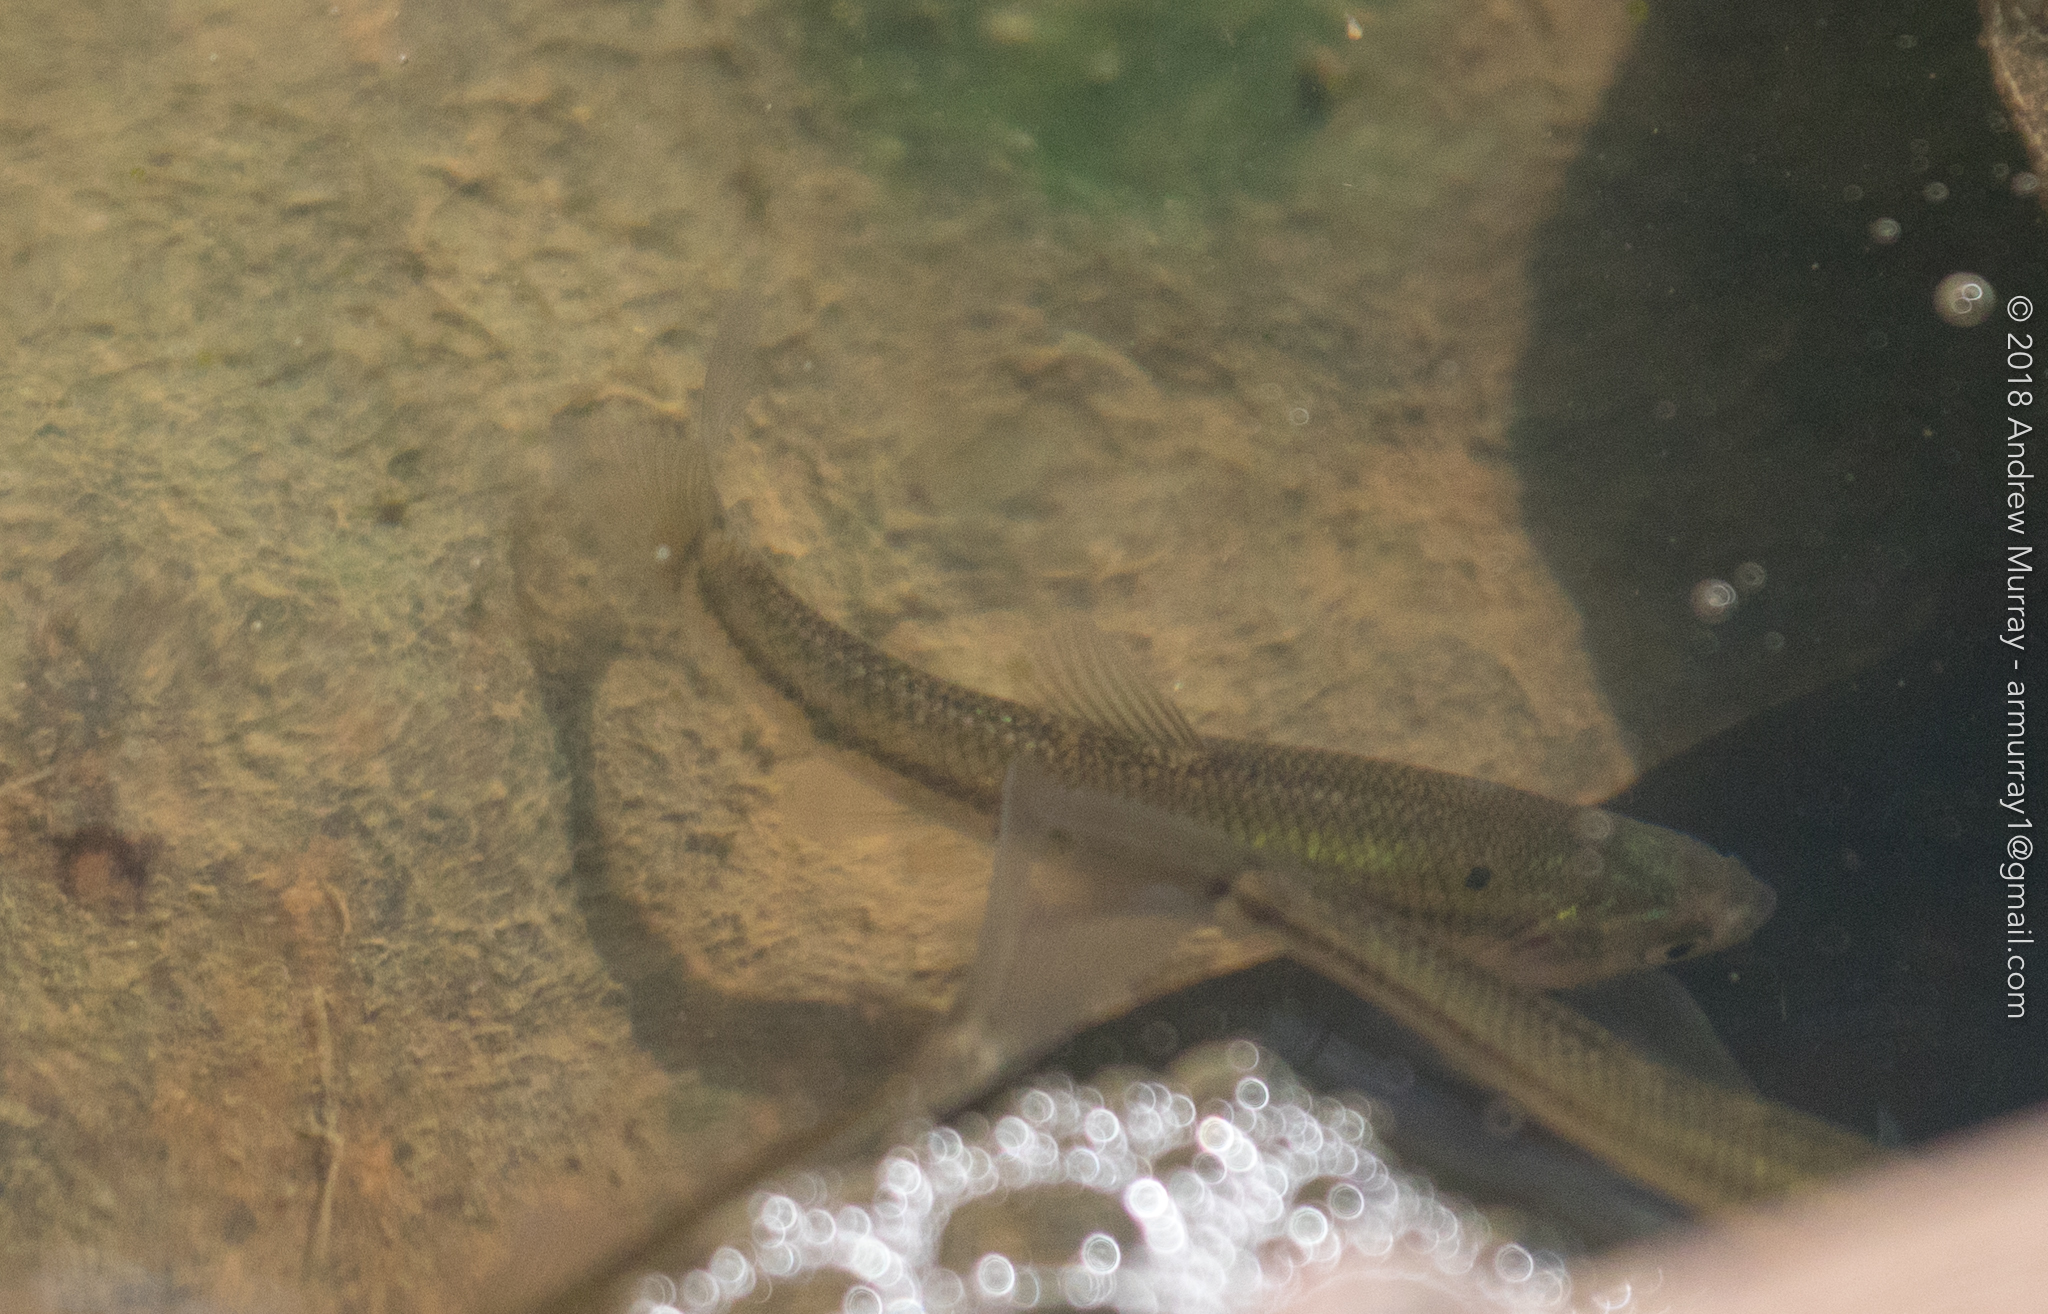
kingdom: Animalia
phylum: Chordata
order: Cypriniformes
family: Cyprinidae
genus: Pimephales
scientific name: Pimephales promelas
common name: Fathead minnow
